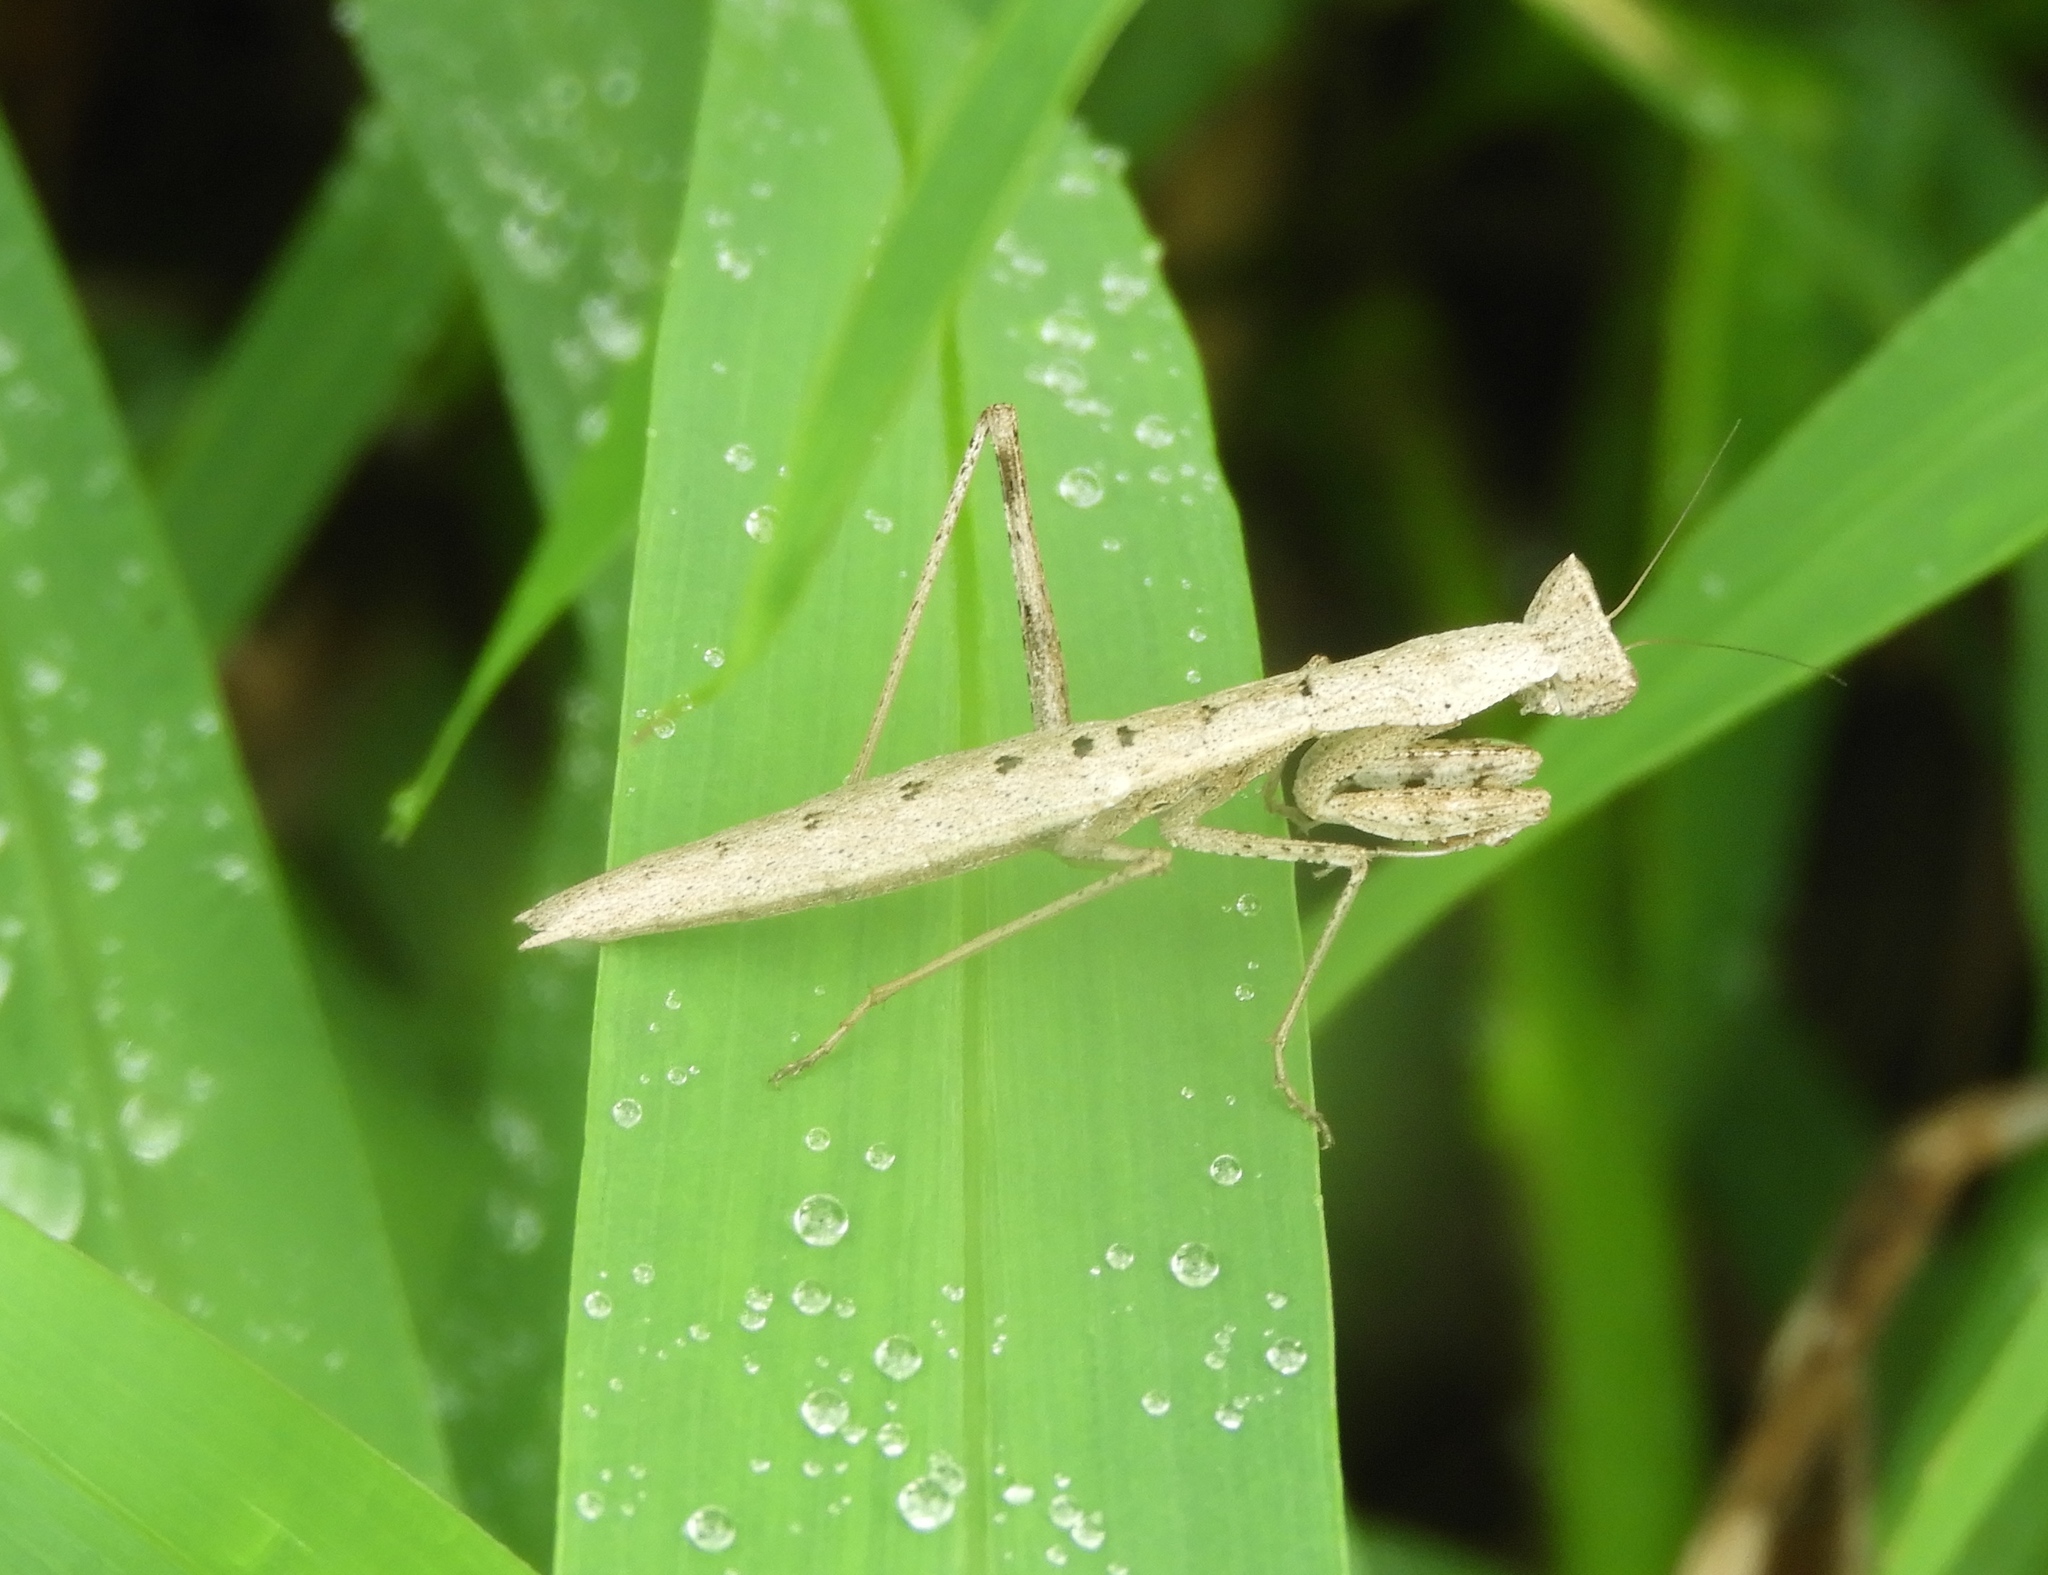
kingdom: Animalia
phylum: Arthropoda
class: Insecta
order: Mantodea
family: Amelidae
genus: Yersinia
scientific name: Yersinia mexicana
